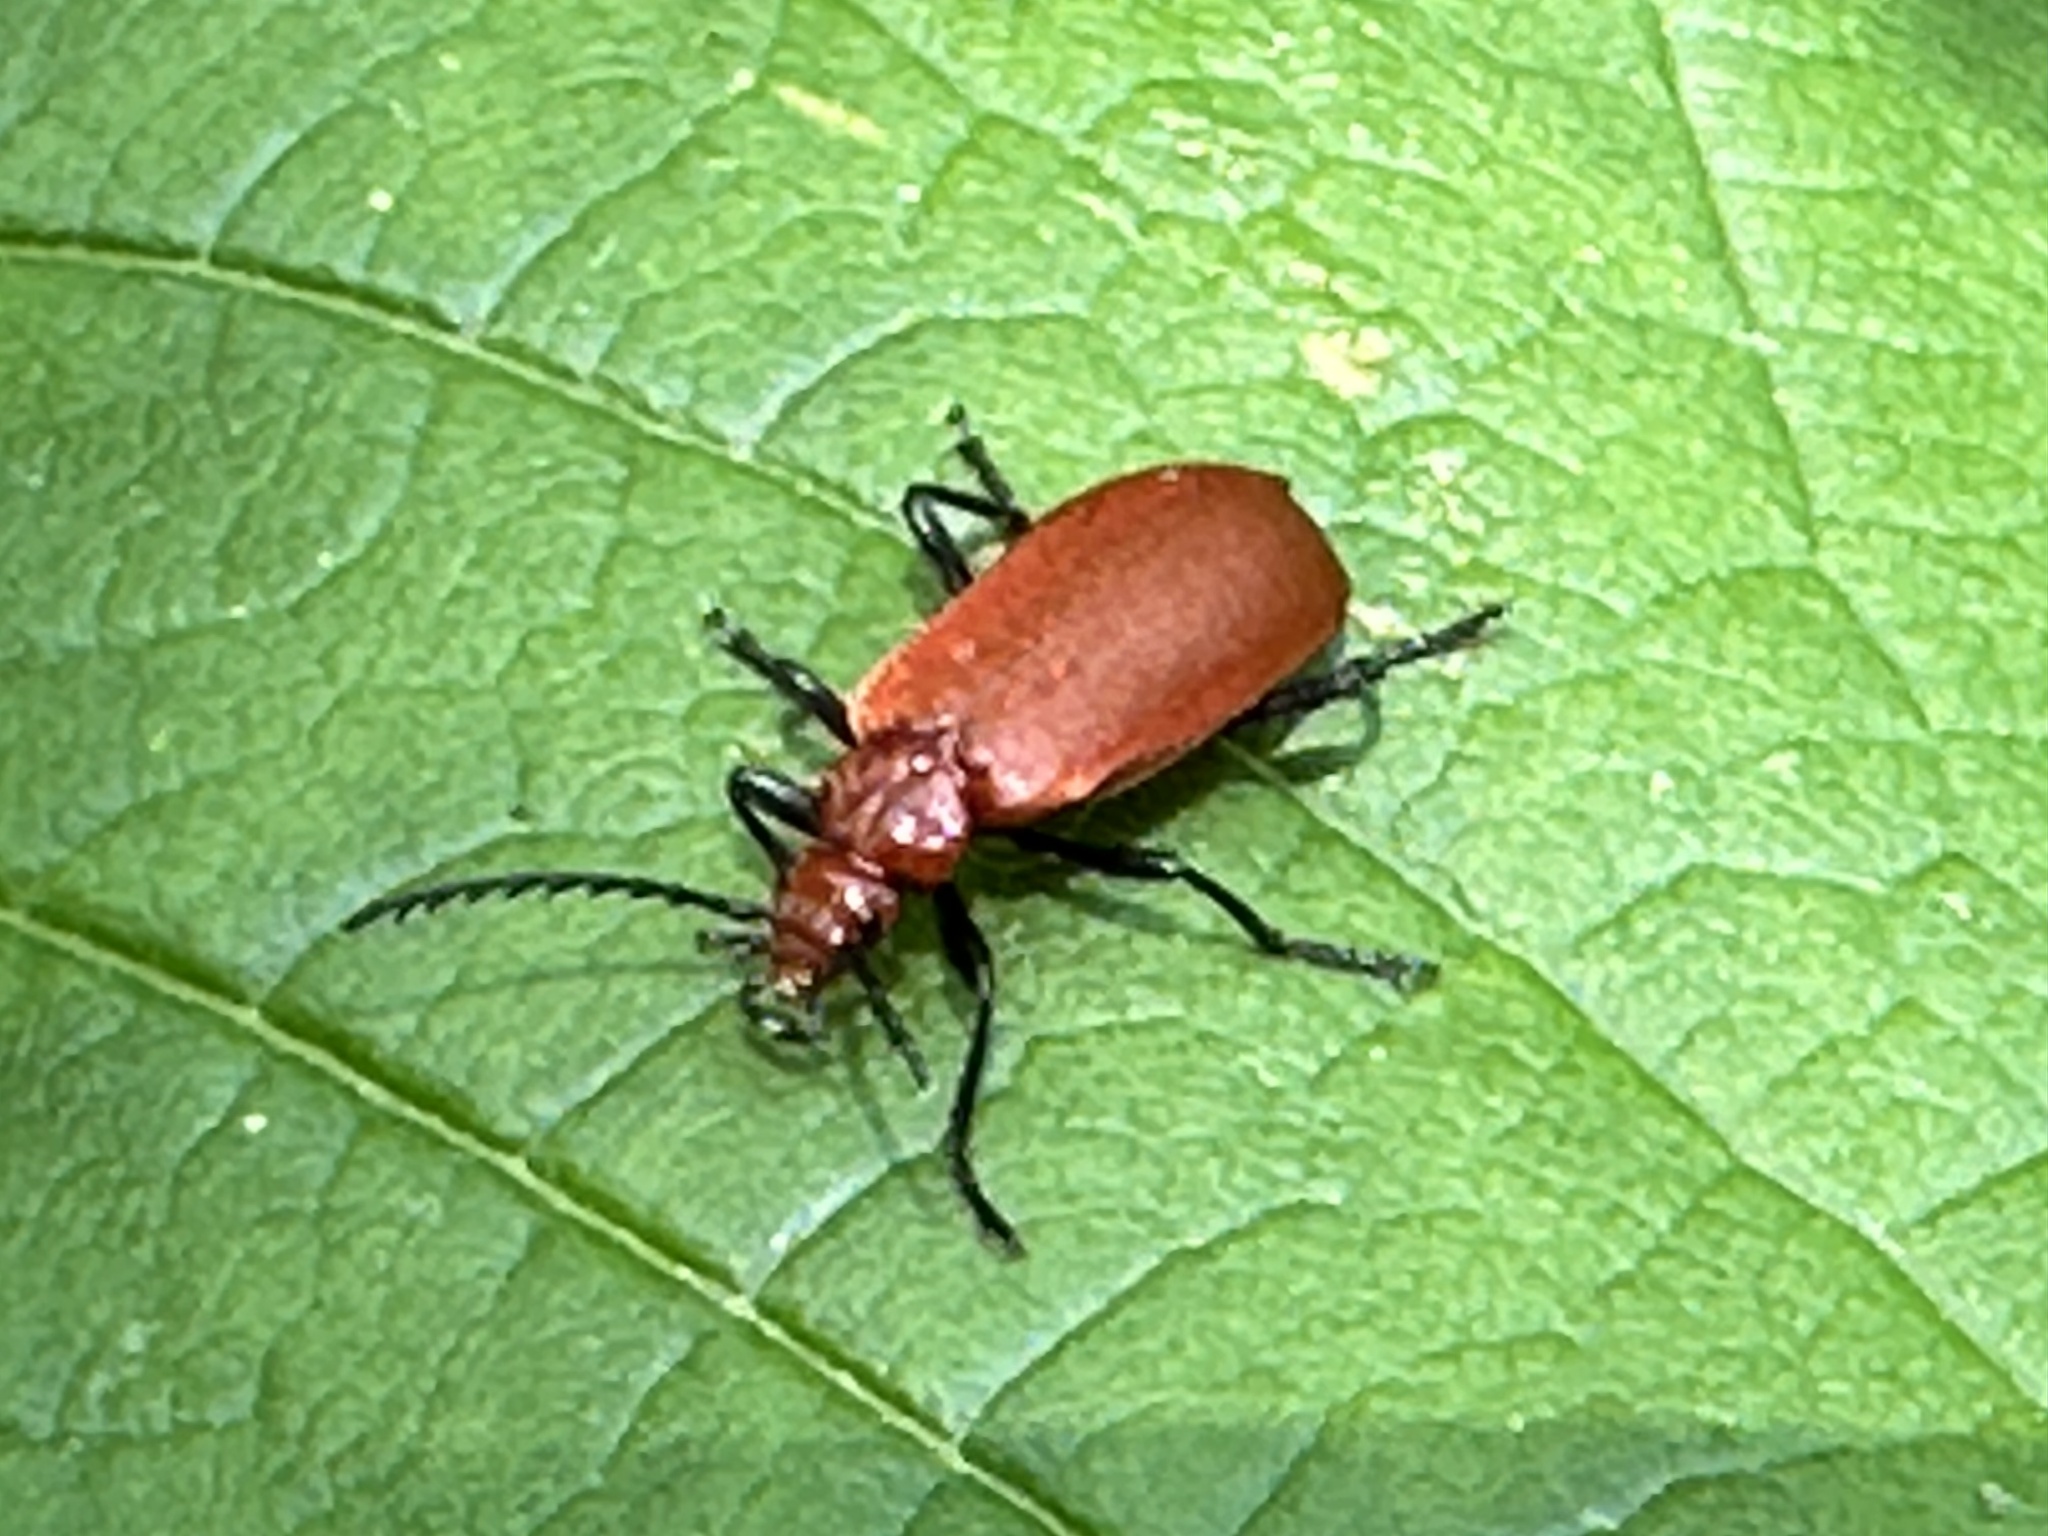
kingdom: Animalia
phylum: Arthropoda
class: Insecta
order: Coleoptera
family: Pyrochroidae
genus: Pyrochroa
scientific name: Pyrochroa serraticornis
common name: Red-headed cardinal beetle
